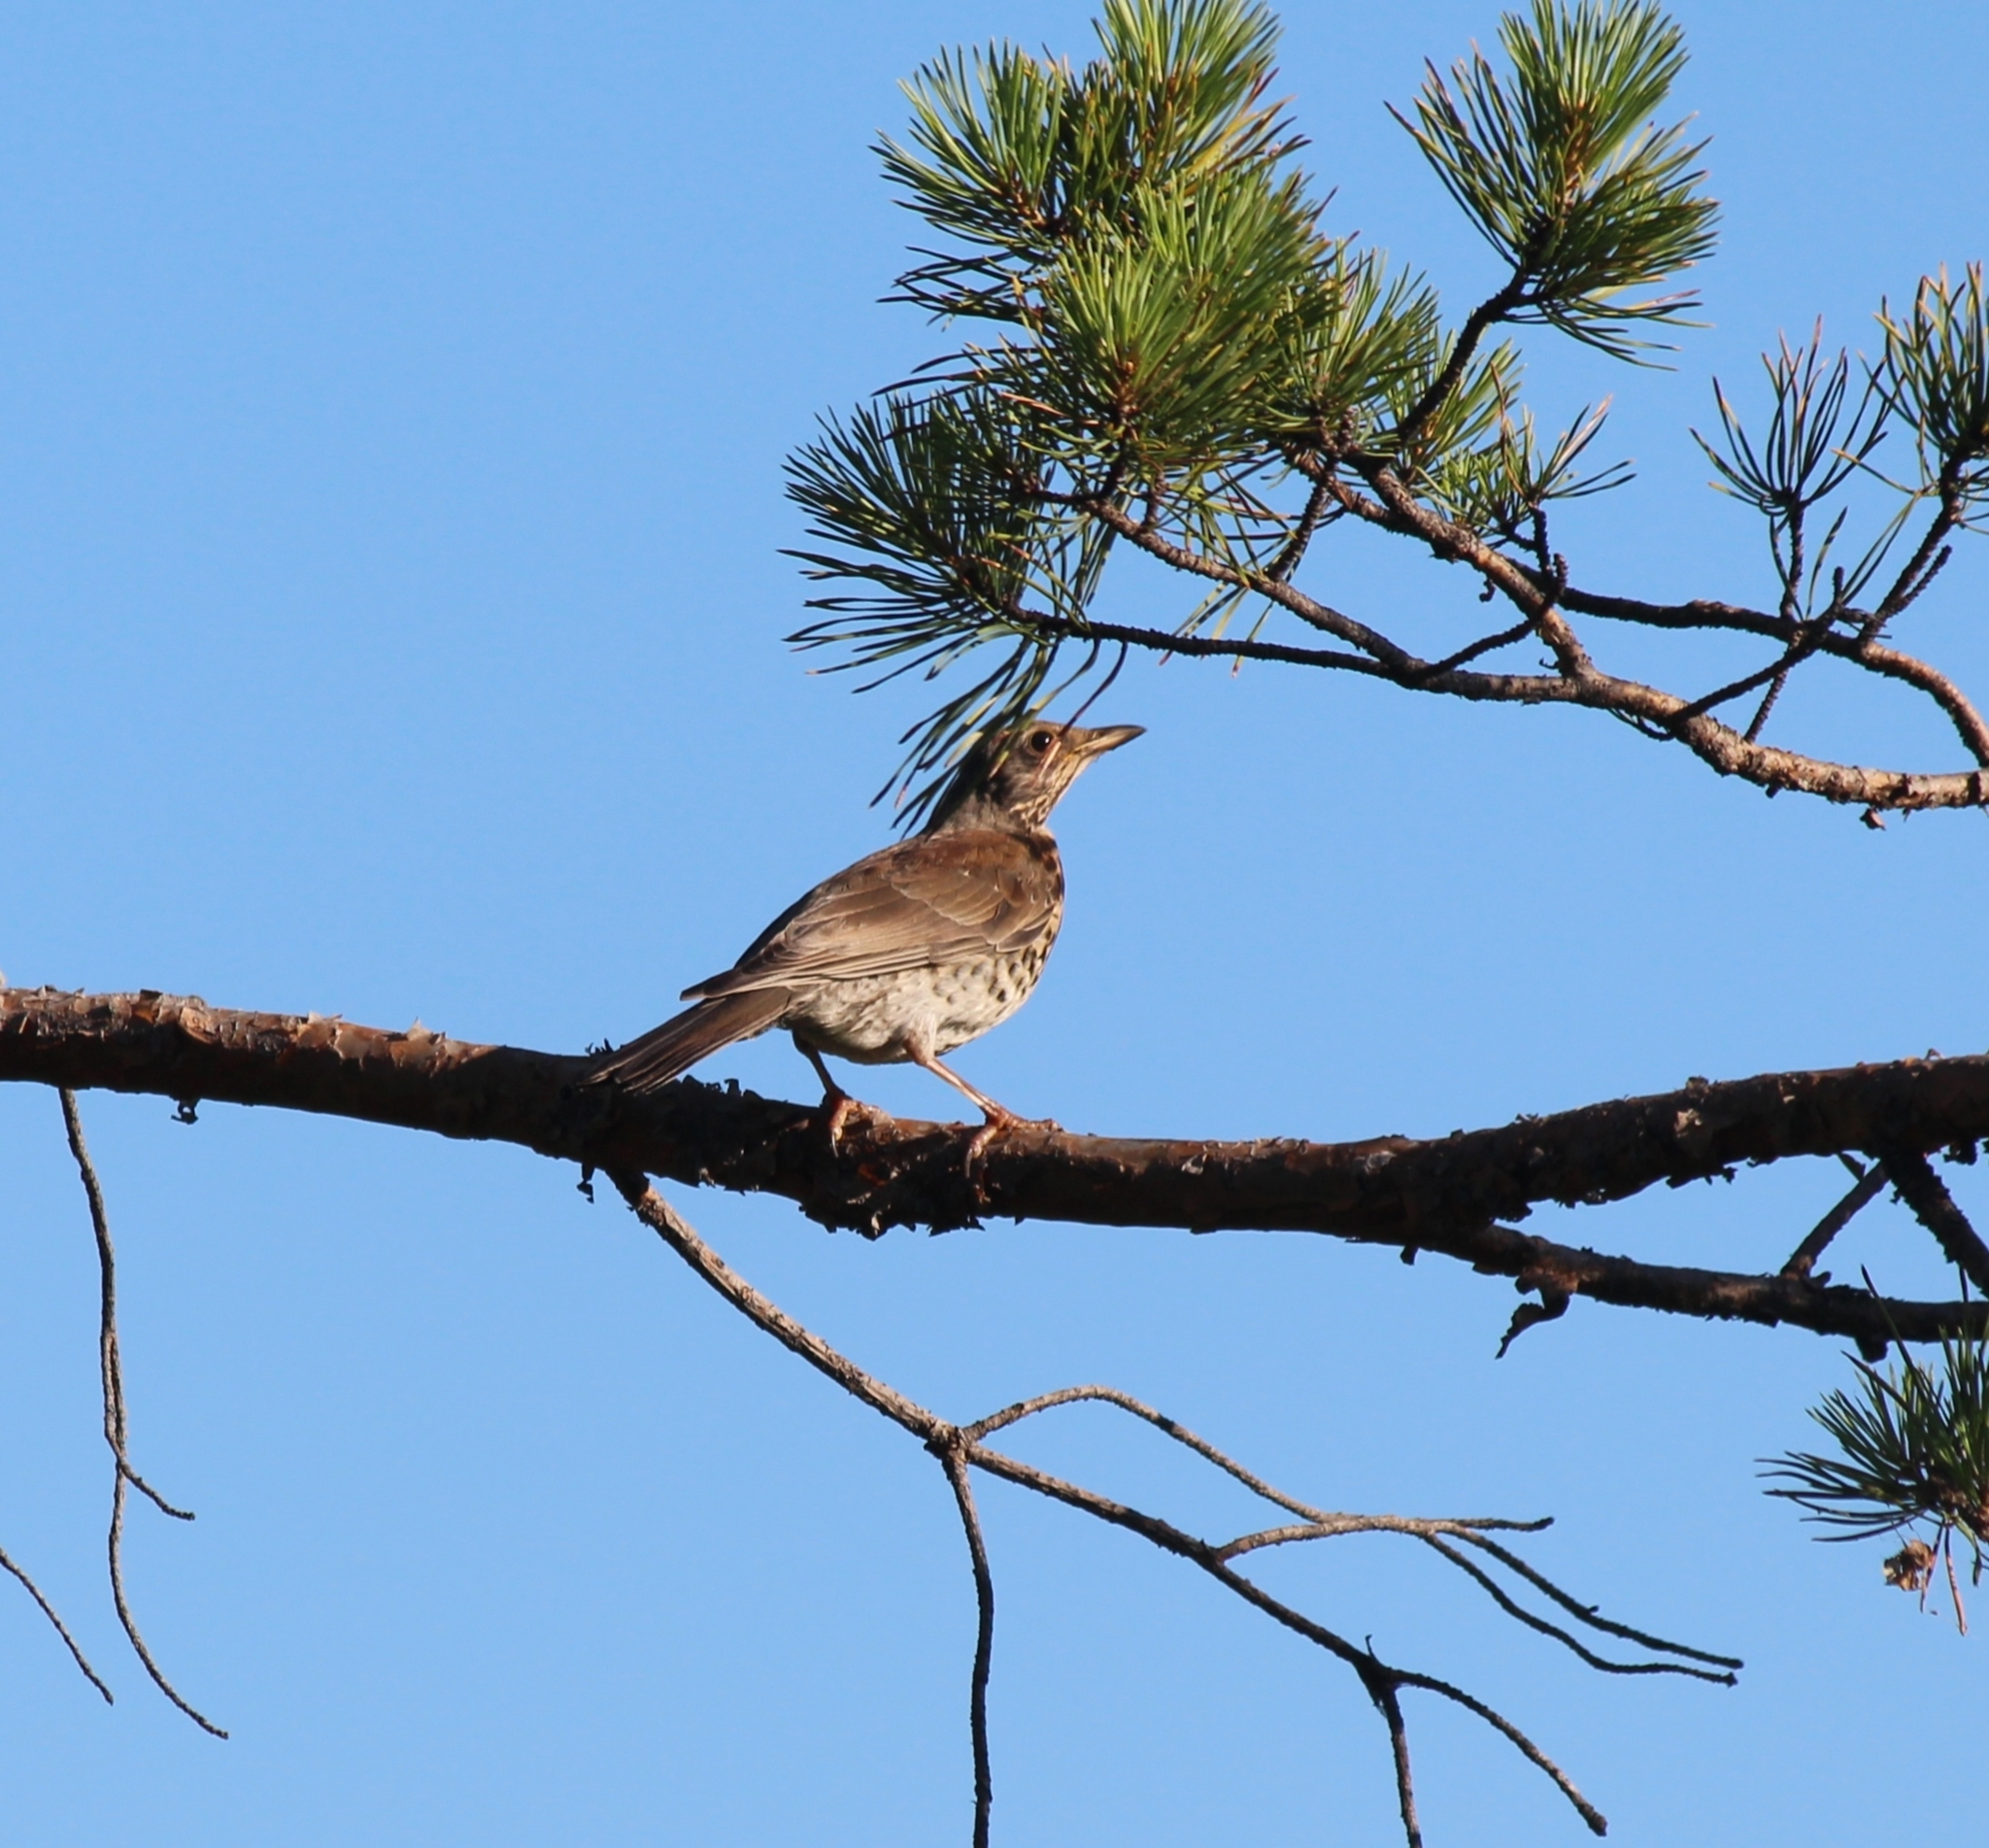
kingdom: Animalia
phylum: Chordata
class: Aves
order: Passeriformes
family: Turdidae
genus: Turdus
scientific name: Turdus pilaris
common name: Fieldfare
